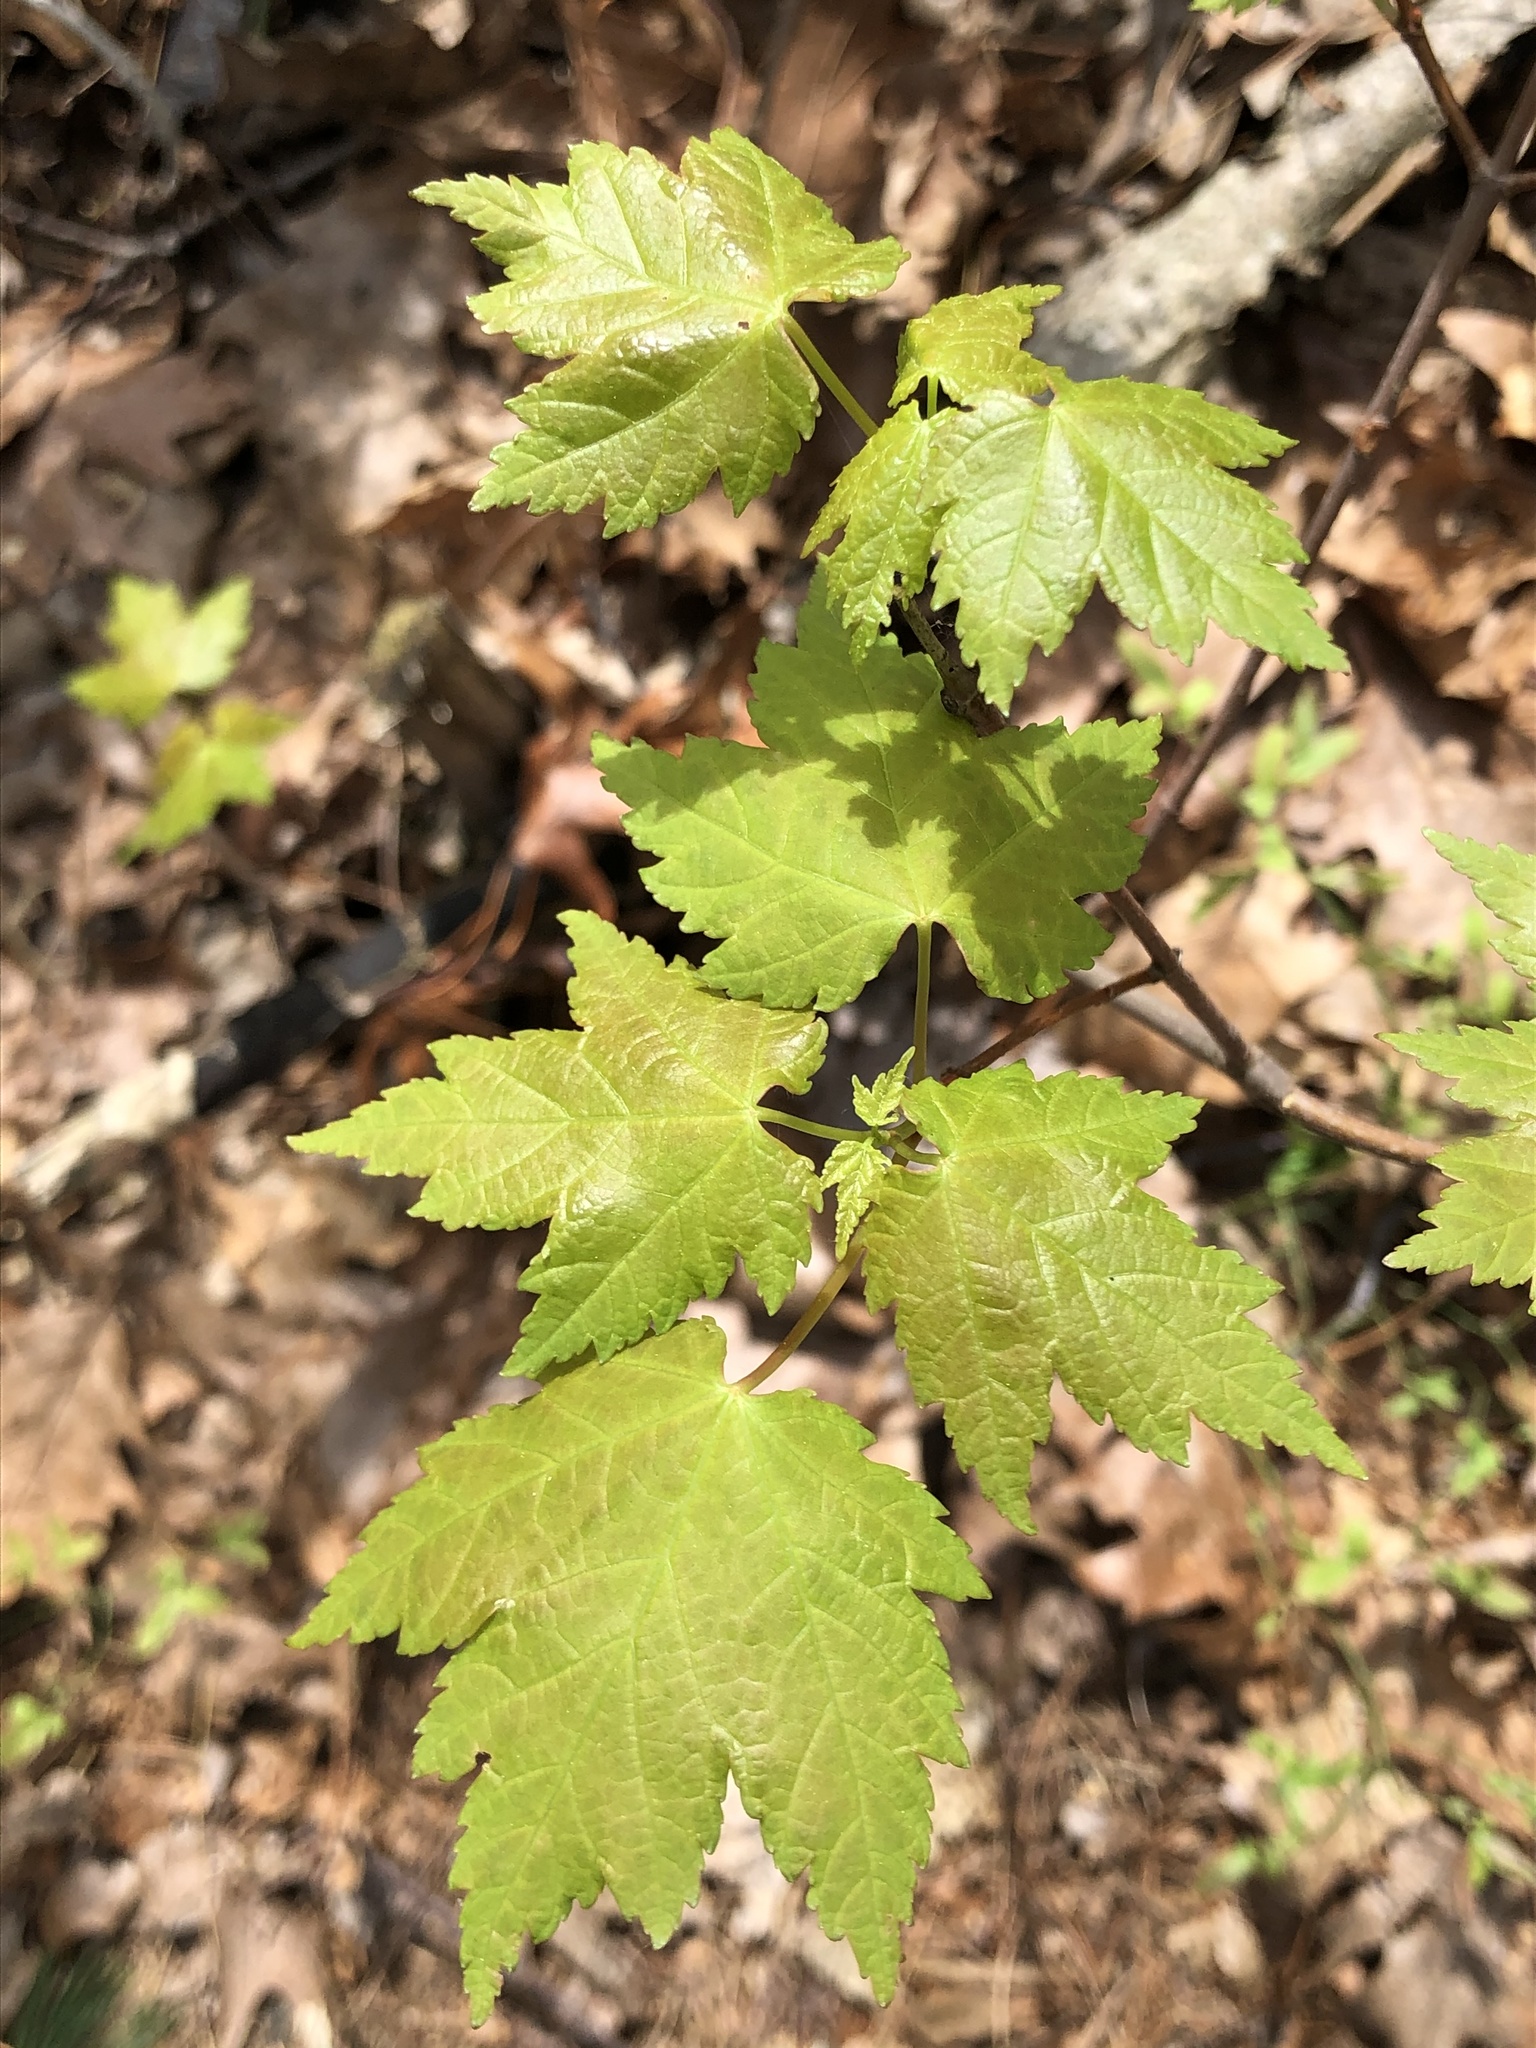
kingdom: Plantae
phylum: Tracheophyta
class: Magnoliopsida
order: Sapindales
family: Sapindaceae
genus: Acer
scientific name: Acer rubrum
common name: Red maple
